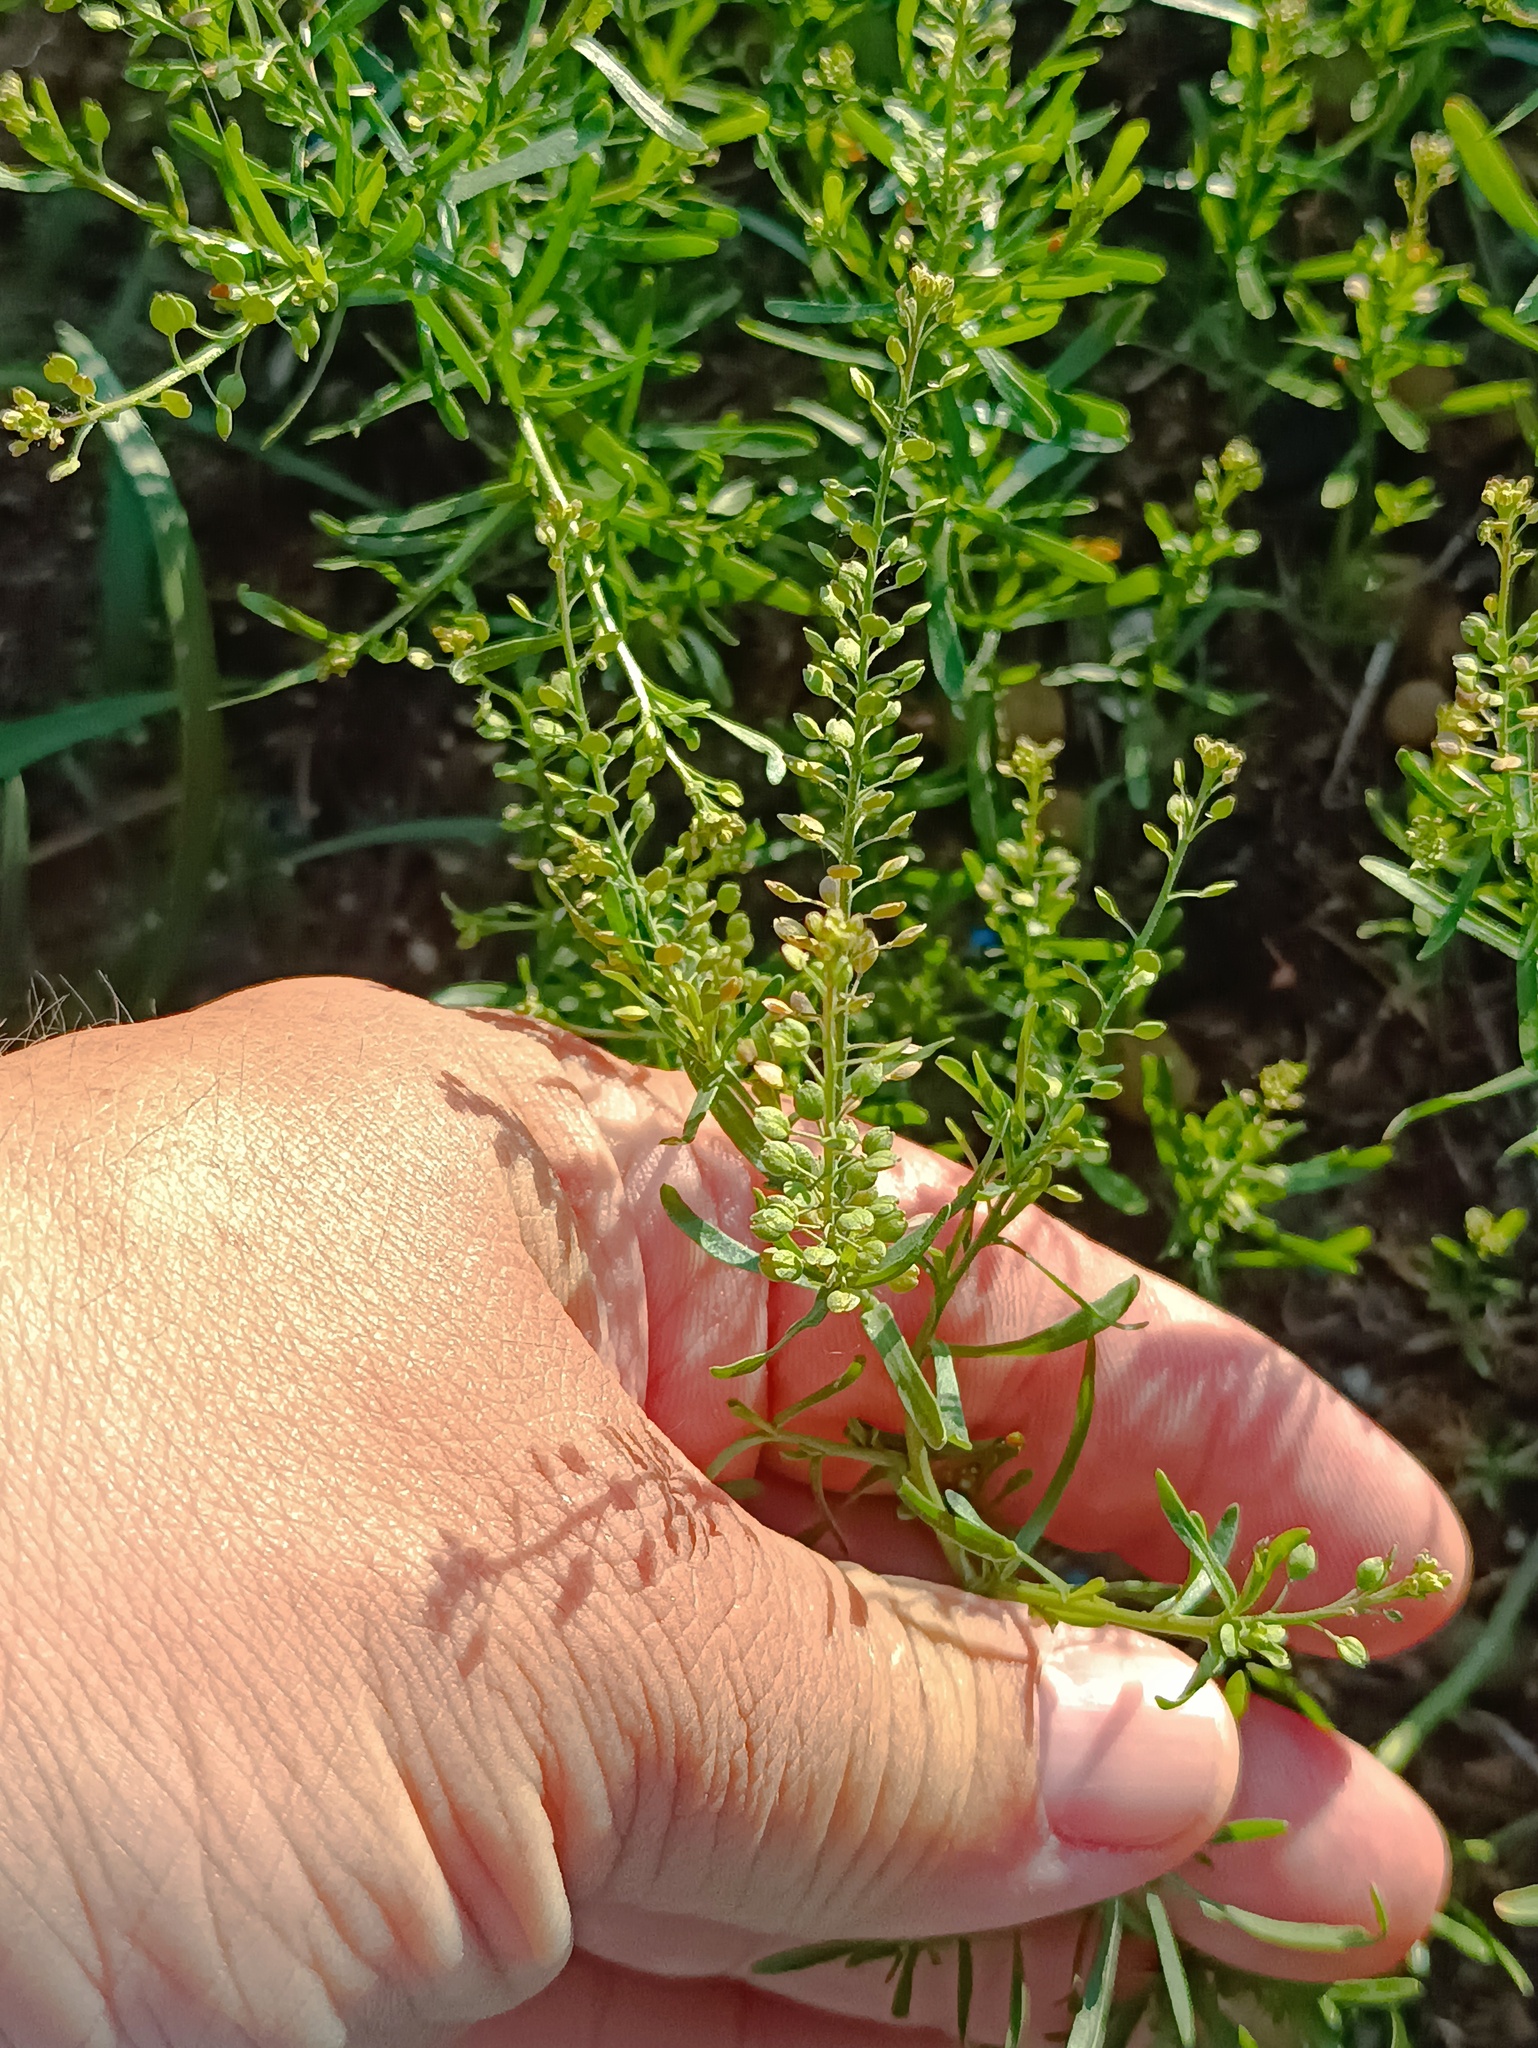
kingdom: Plantae
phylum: Tracheophyta
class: Magnoliopsida
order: Brassicales
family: Brassicaceae
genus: Lepidium
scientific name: Lepidium ruderale
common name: Narrow-leaved pepperwort
